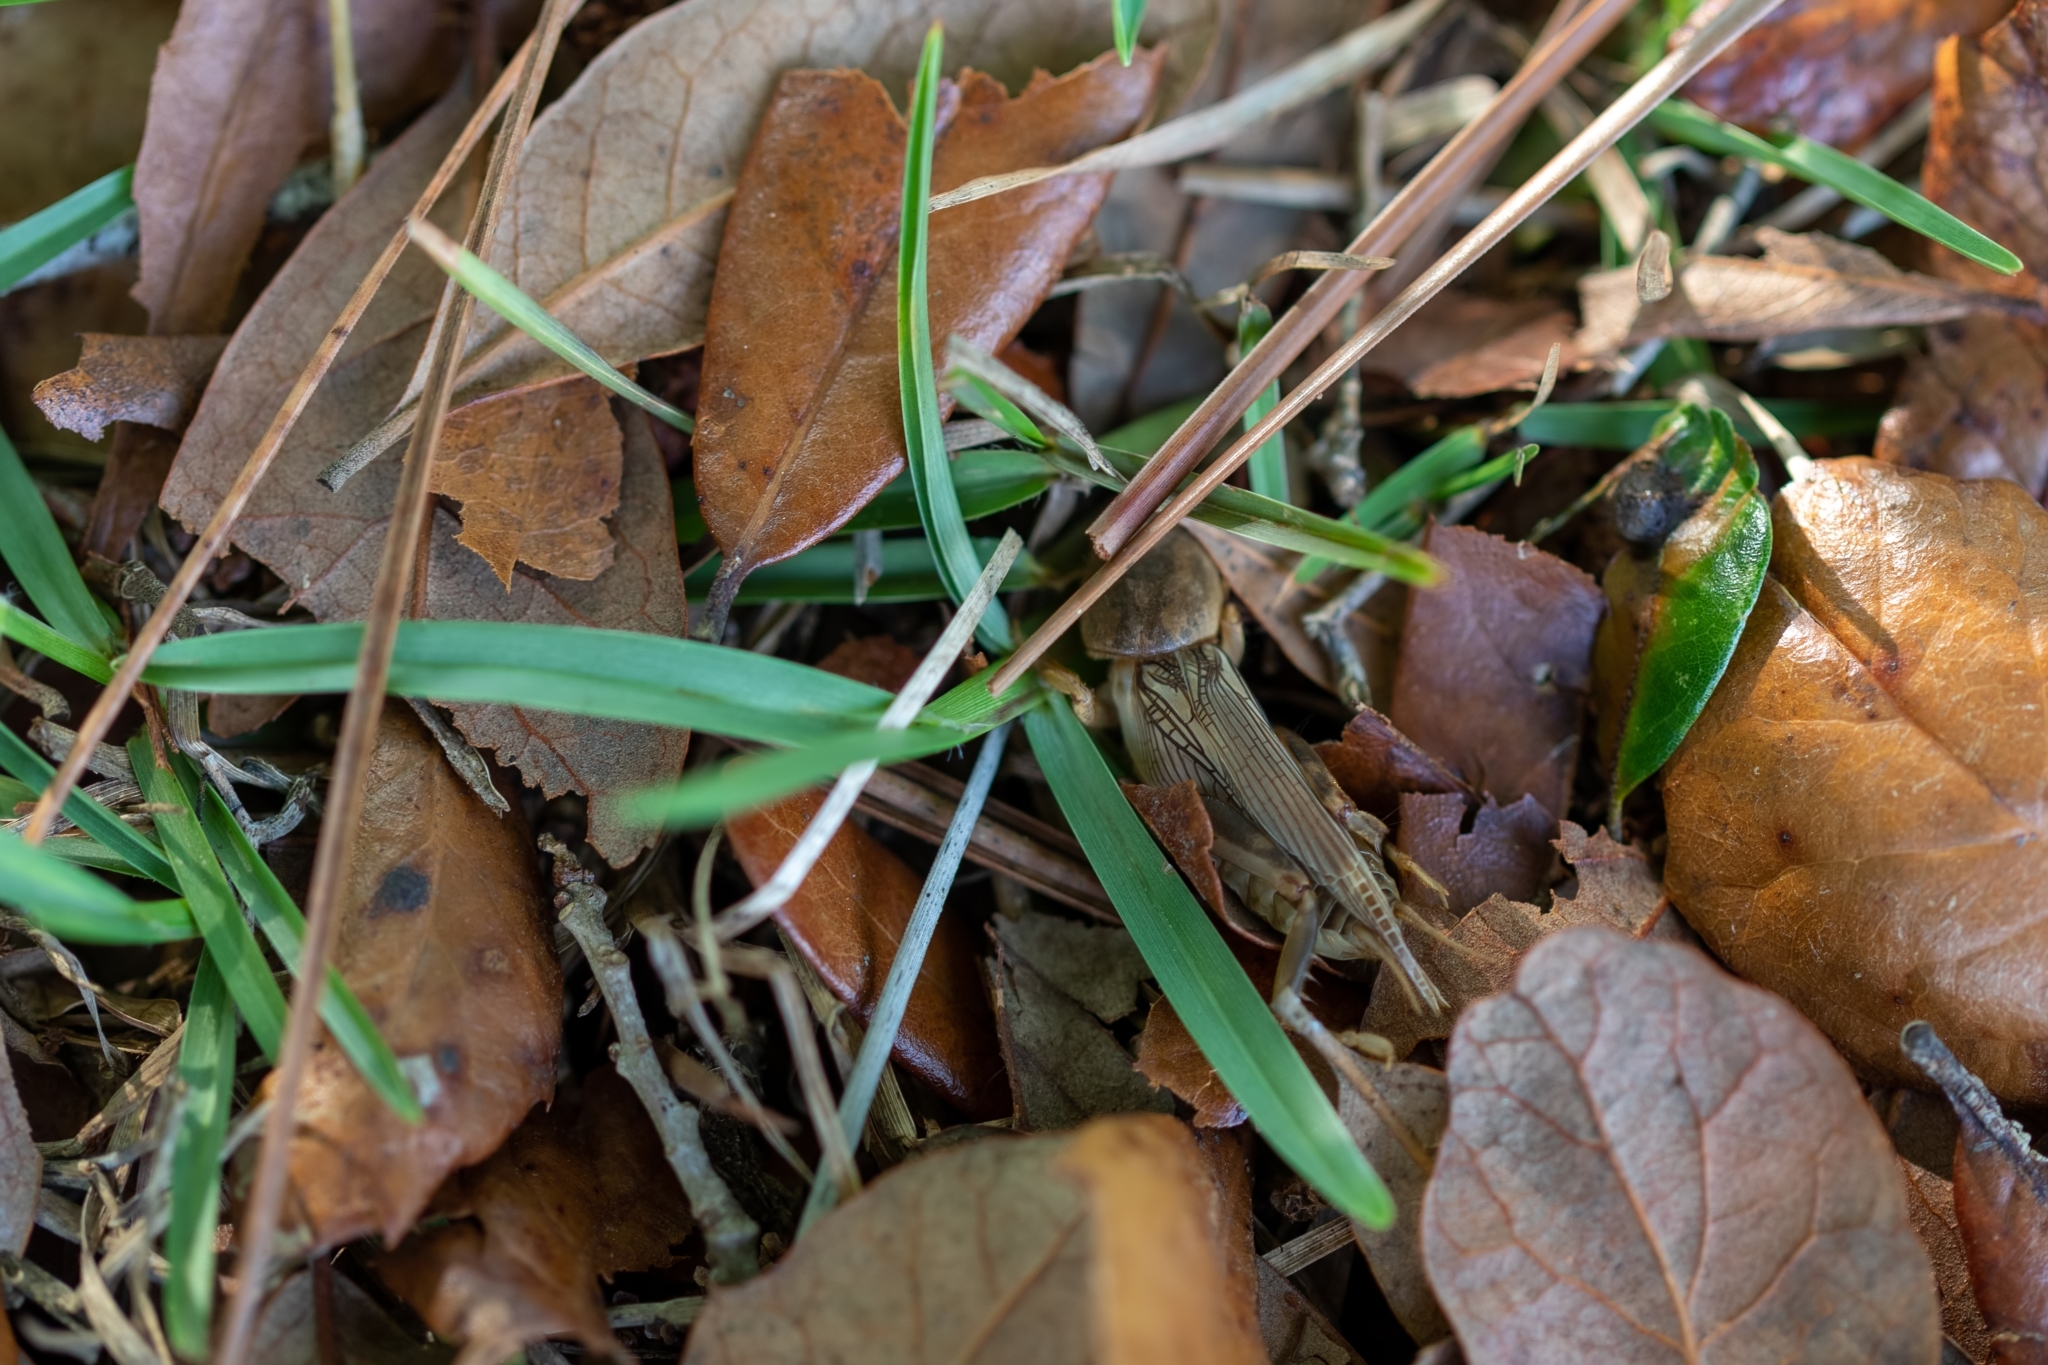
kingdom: Animalia
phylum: Arthropoda
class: Insecta
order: Orthoptera
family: Gryllotalpidae
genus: Neoscapteriscus
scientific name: Neoscapteriscus vicinus
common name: Tawny mole cricket
